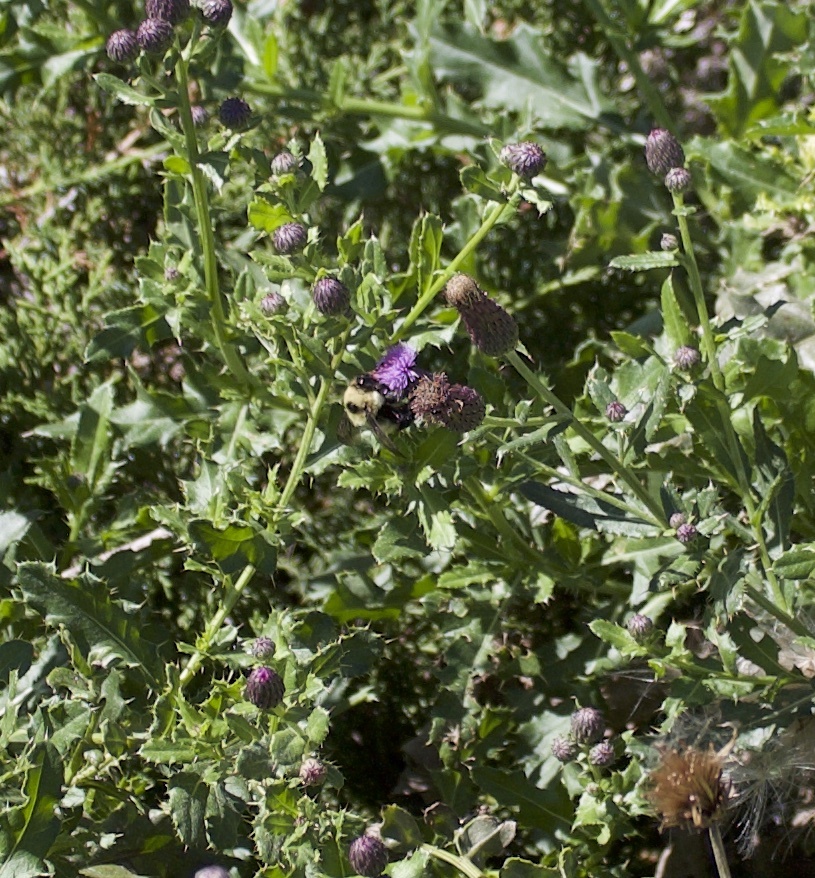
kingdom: Animalia
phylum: Arthropoda
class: Insecta
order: Hymenoptera
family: Apidae
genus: Bombus
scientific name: Bombus rufocinctus
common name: Red-belted bumble bee
